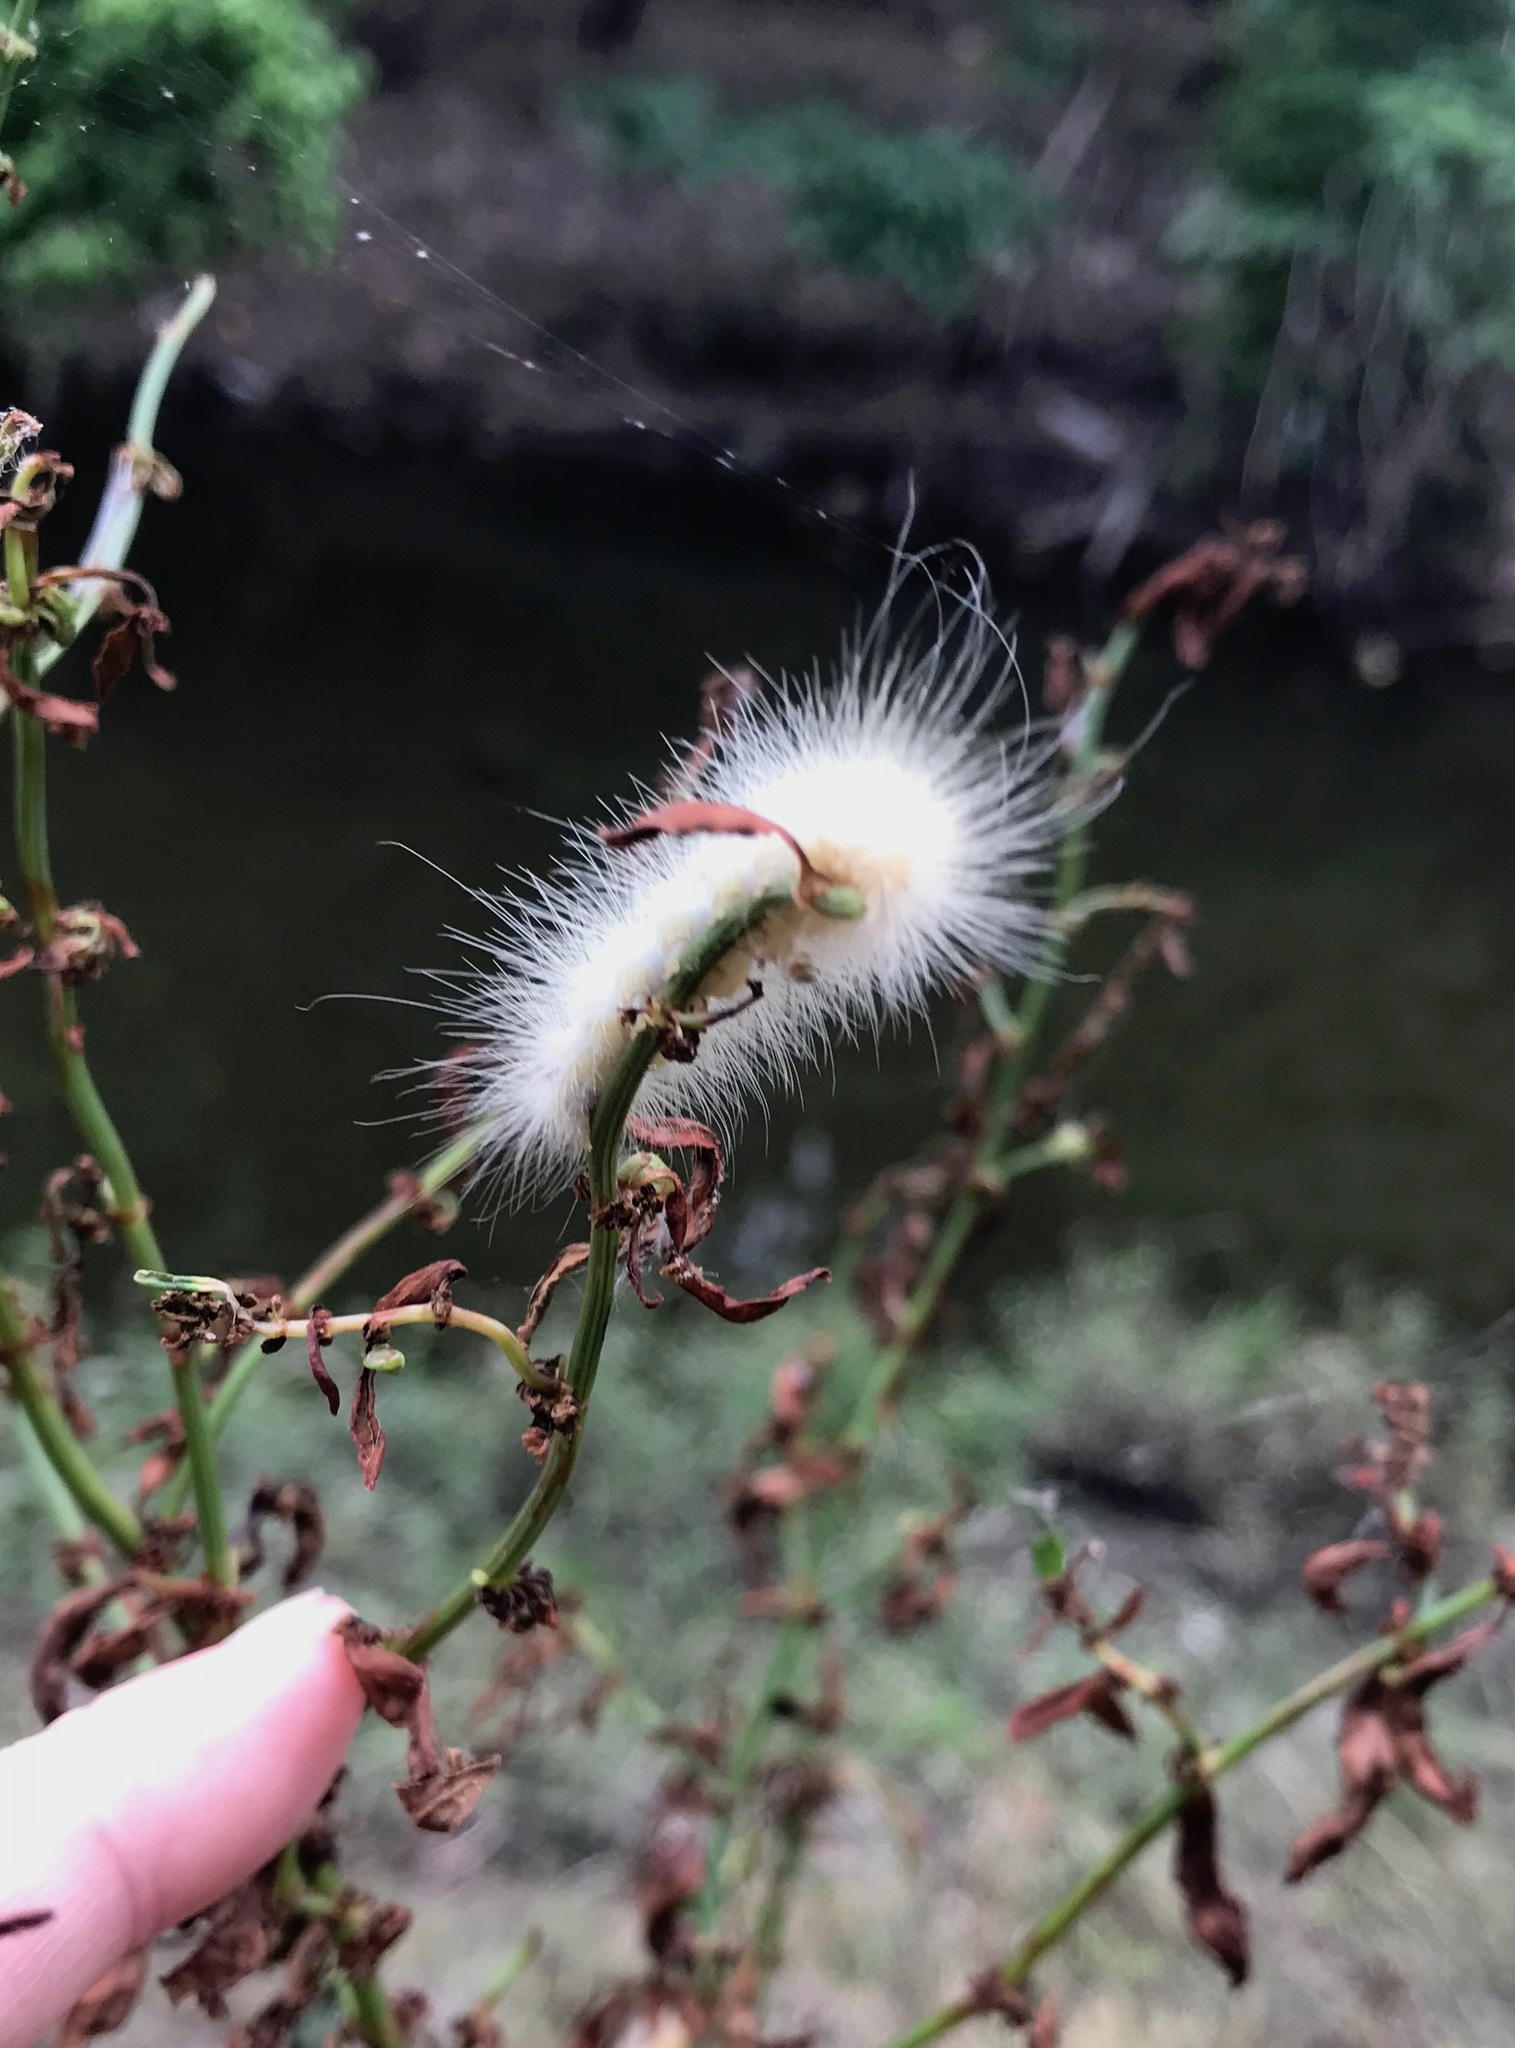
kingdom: Animalia
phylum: Arthropoda
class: Insecta
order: Lepidoptera
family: Erebidae
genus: Spilosoma
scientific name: Spilosoma virginica
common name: Virginia tiger moth
